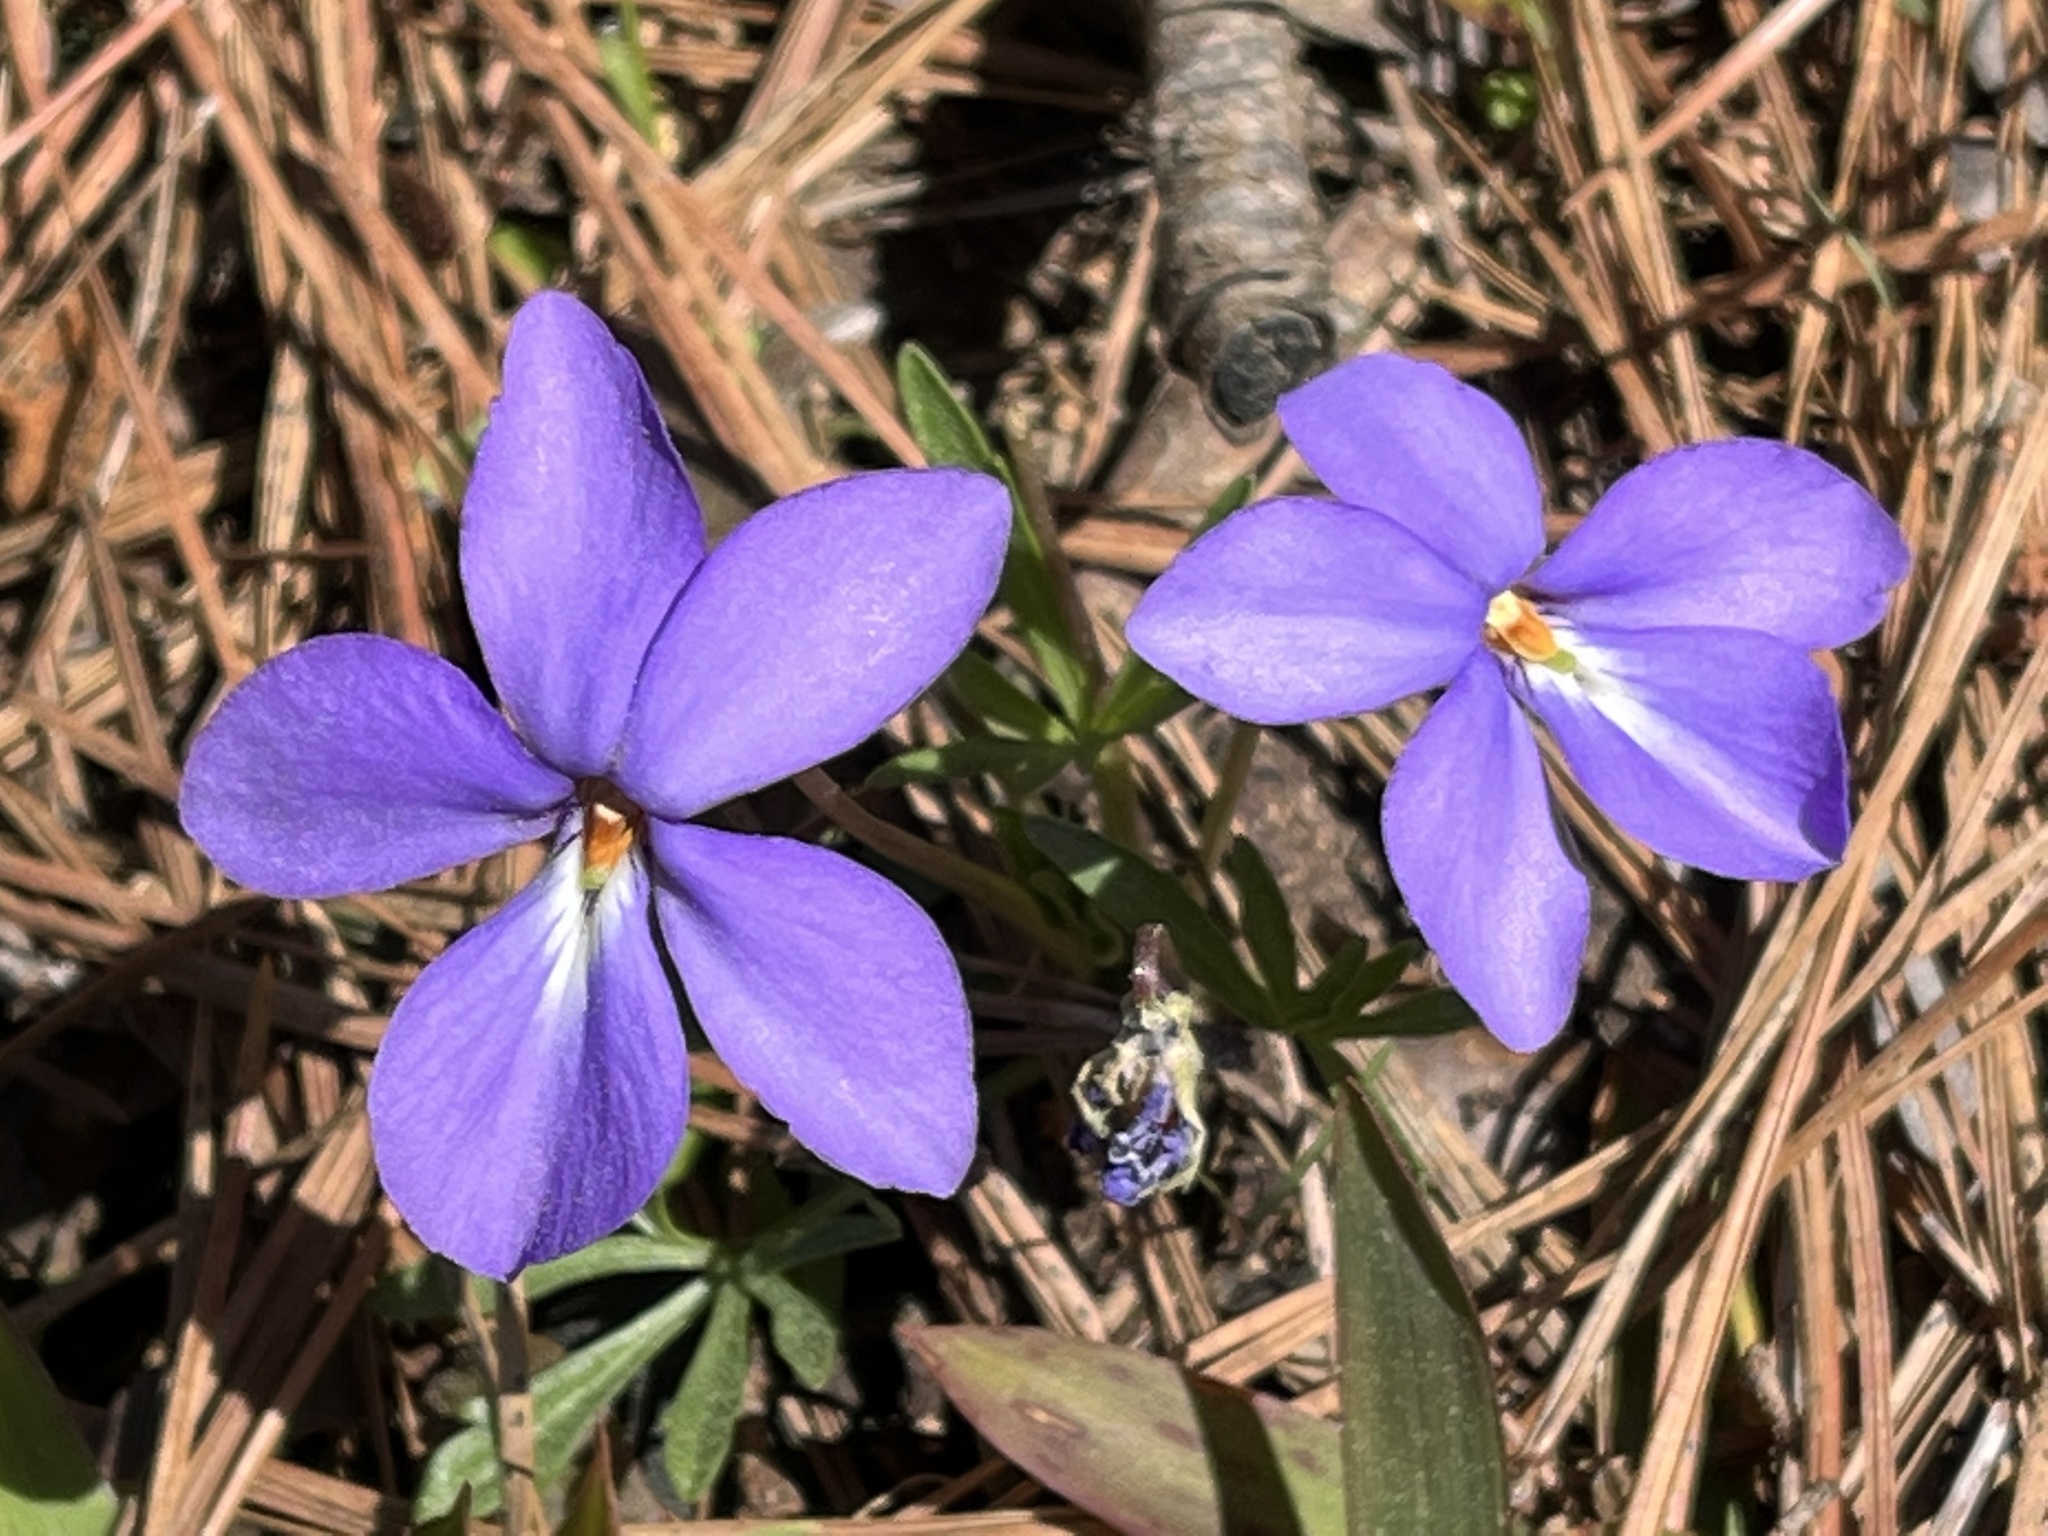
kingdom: Plantae
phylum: Tracheophyta
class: Magnoliopsida
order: Malpighiales
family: Violaceae
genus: Viola
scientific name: Viola pedata
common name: Pansy violet
